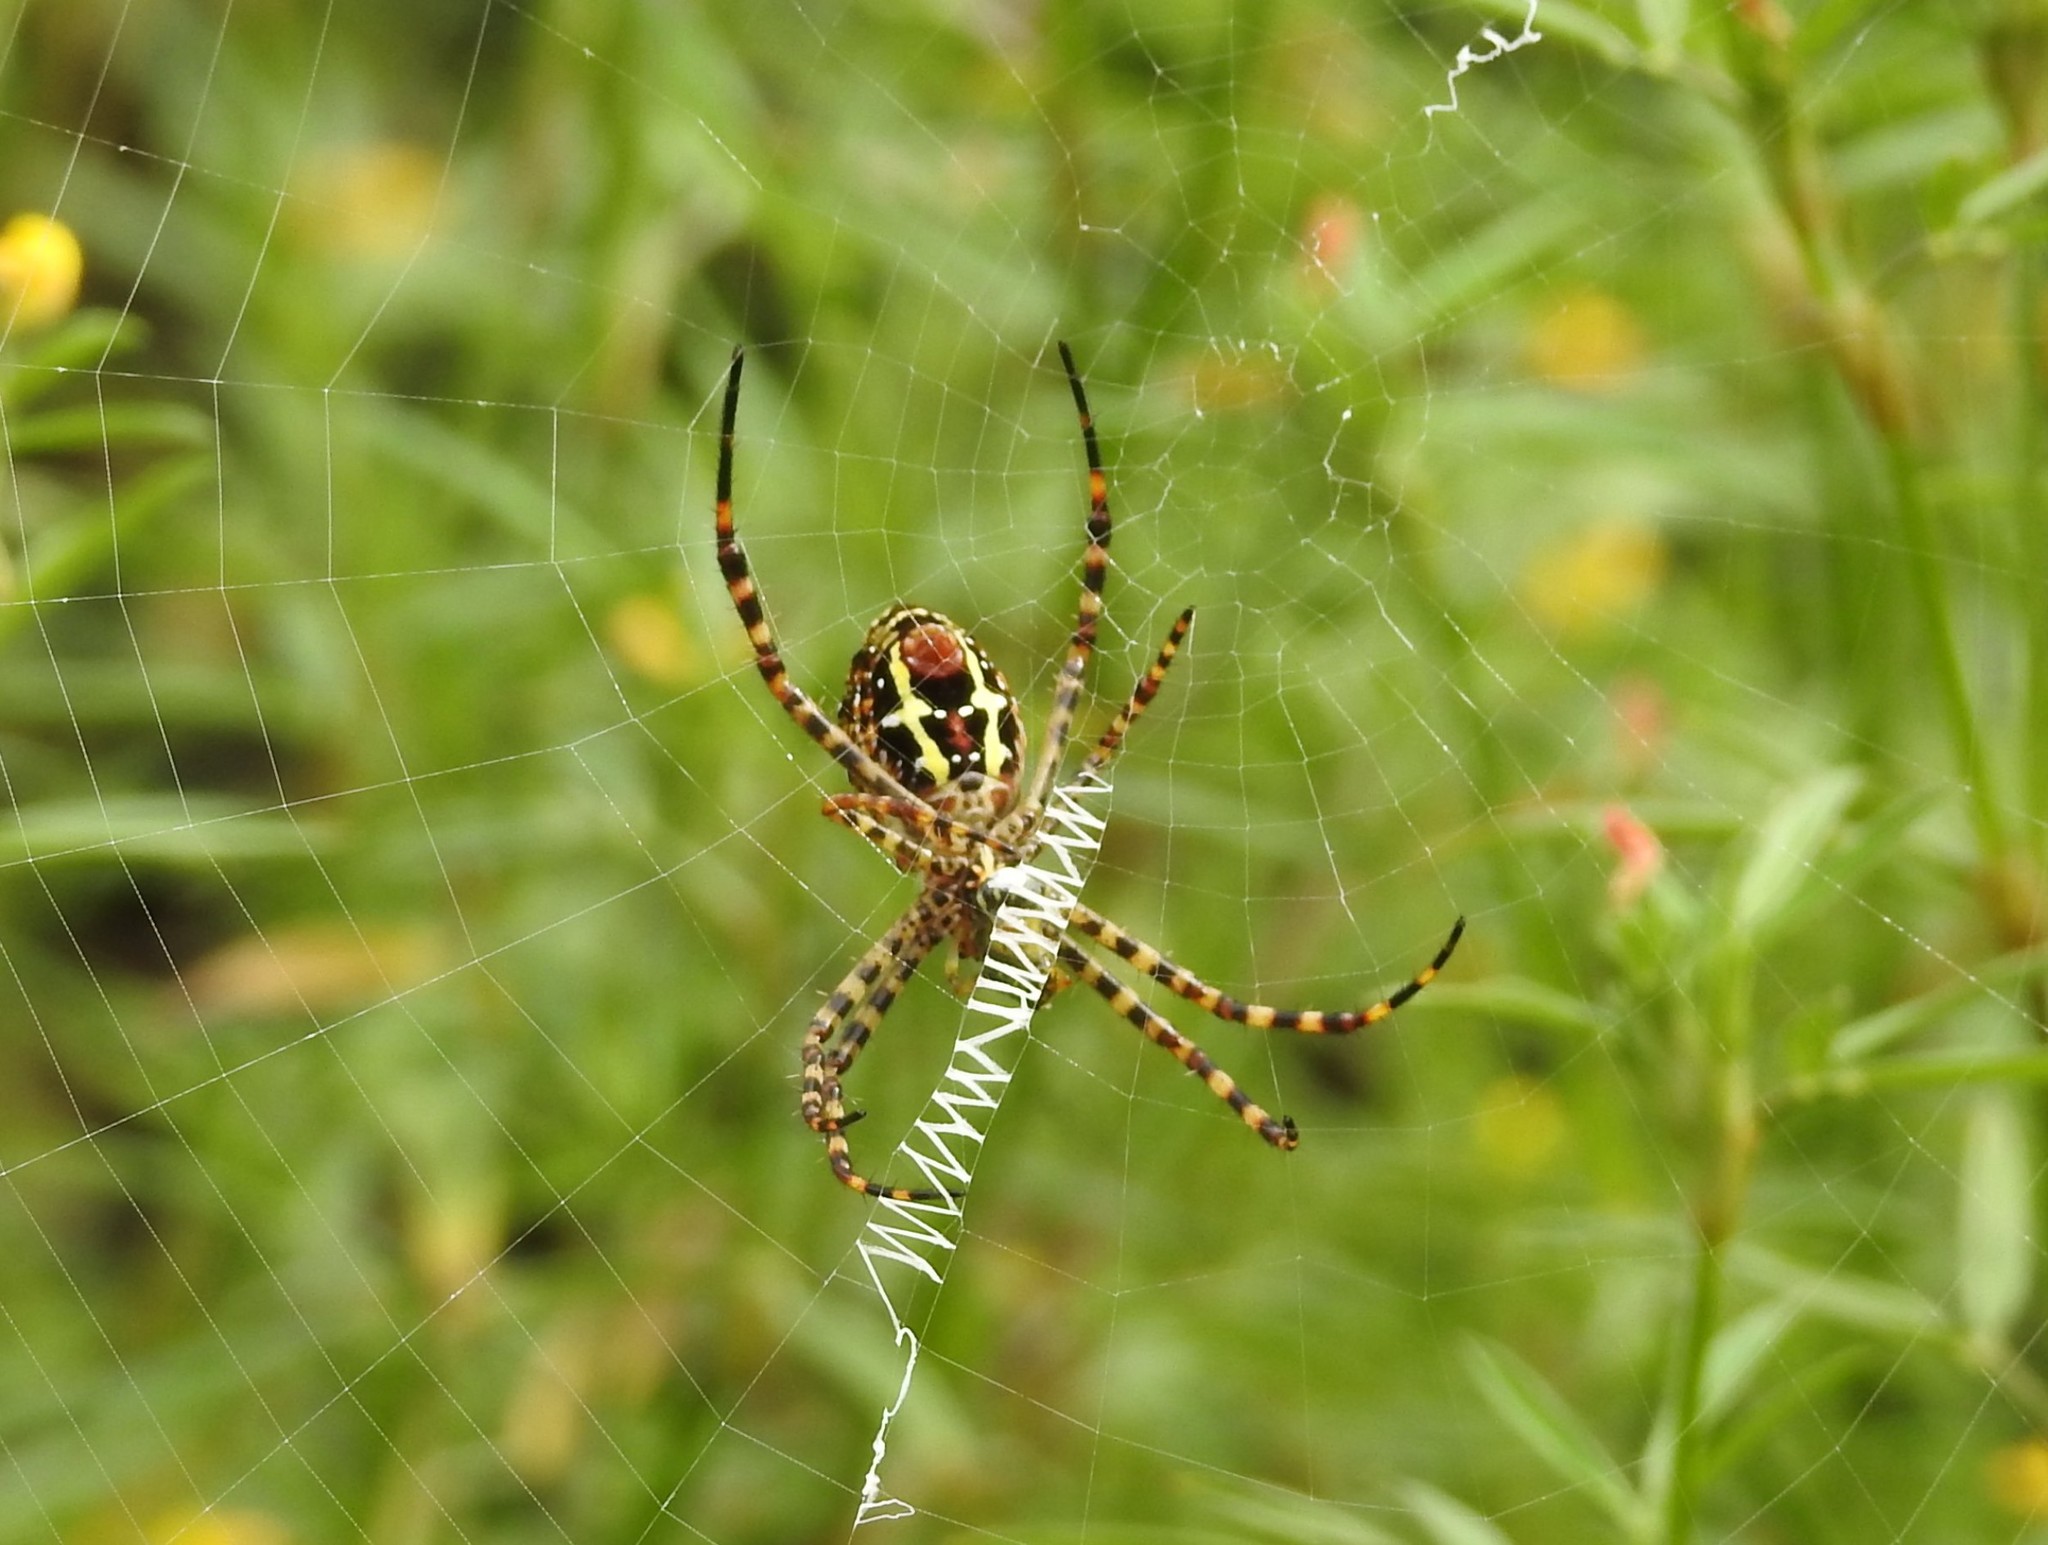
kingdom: Animalia
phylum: Arthropoda
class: Arachnida
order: Araneae
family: Araneidae
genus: Argiope
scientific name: Argiope aemula
